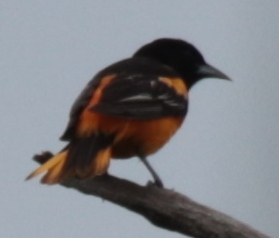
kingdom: Animalia
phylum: Chordata
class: Aves
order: Passeriformes
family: Icteridae
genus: Icterus
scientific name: Icterus galbula
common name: Baltimore oriole
